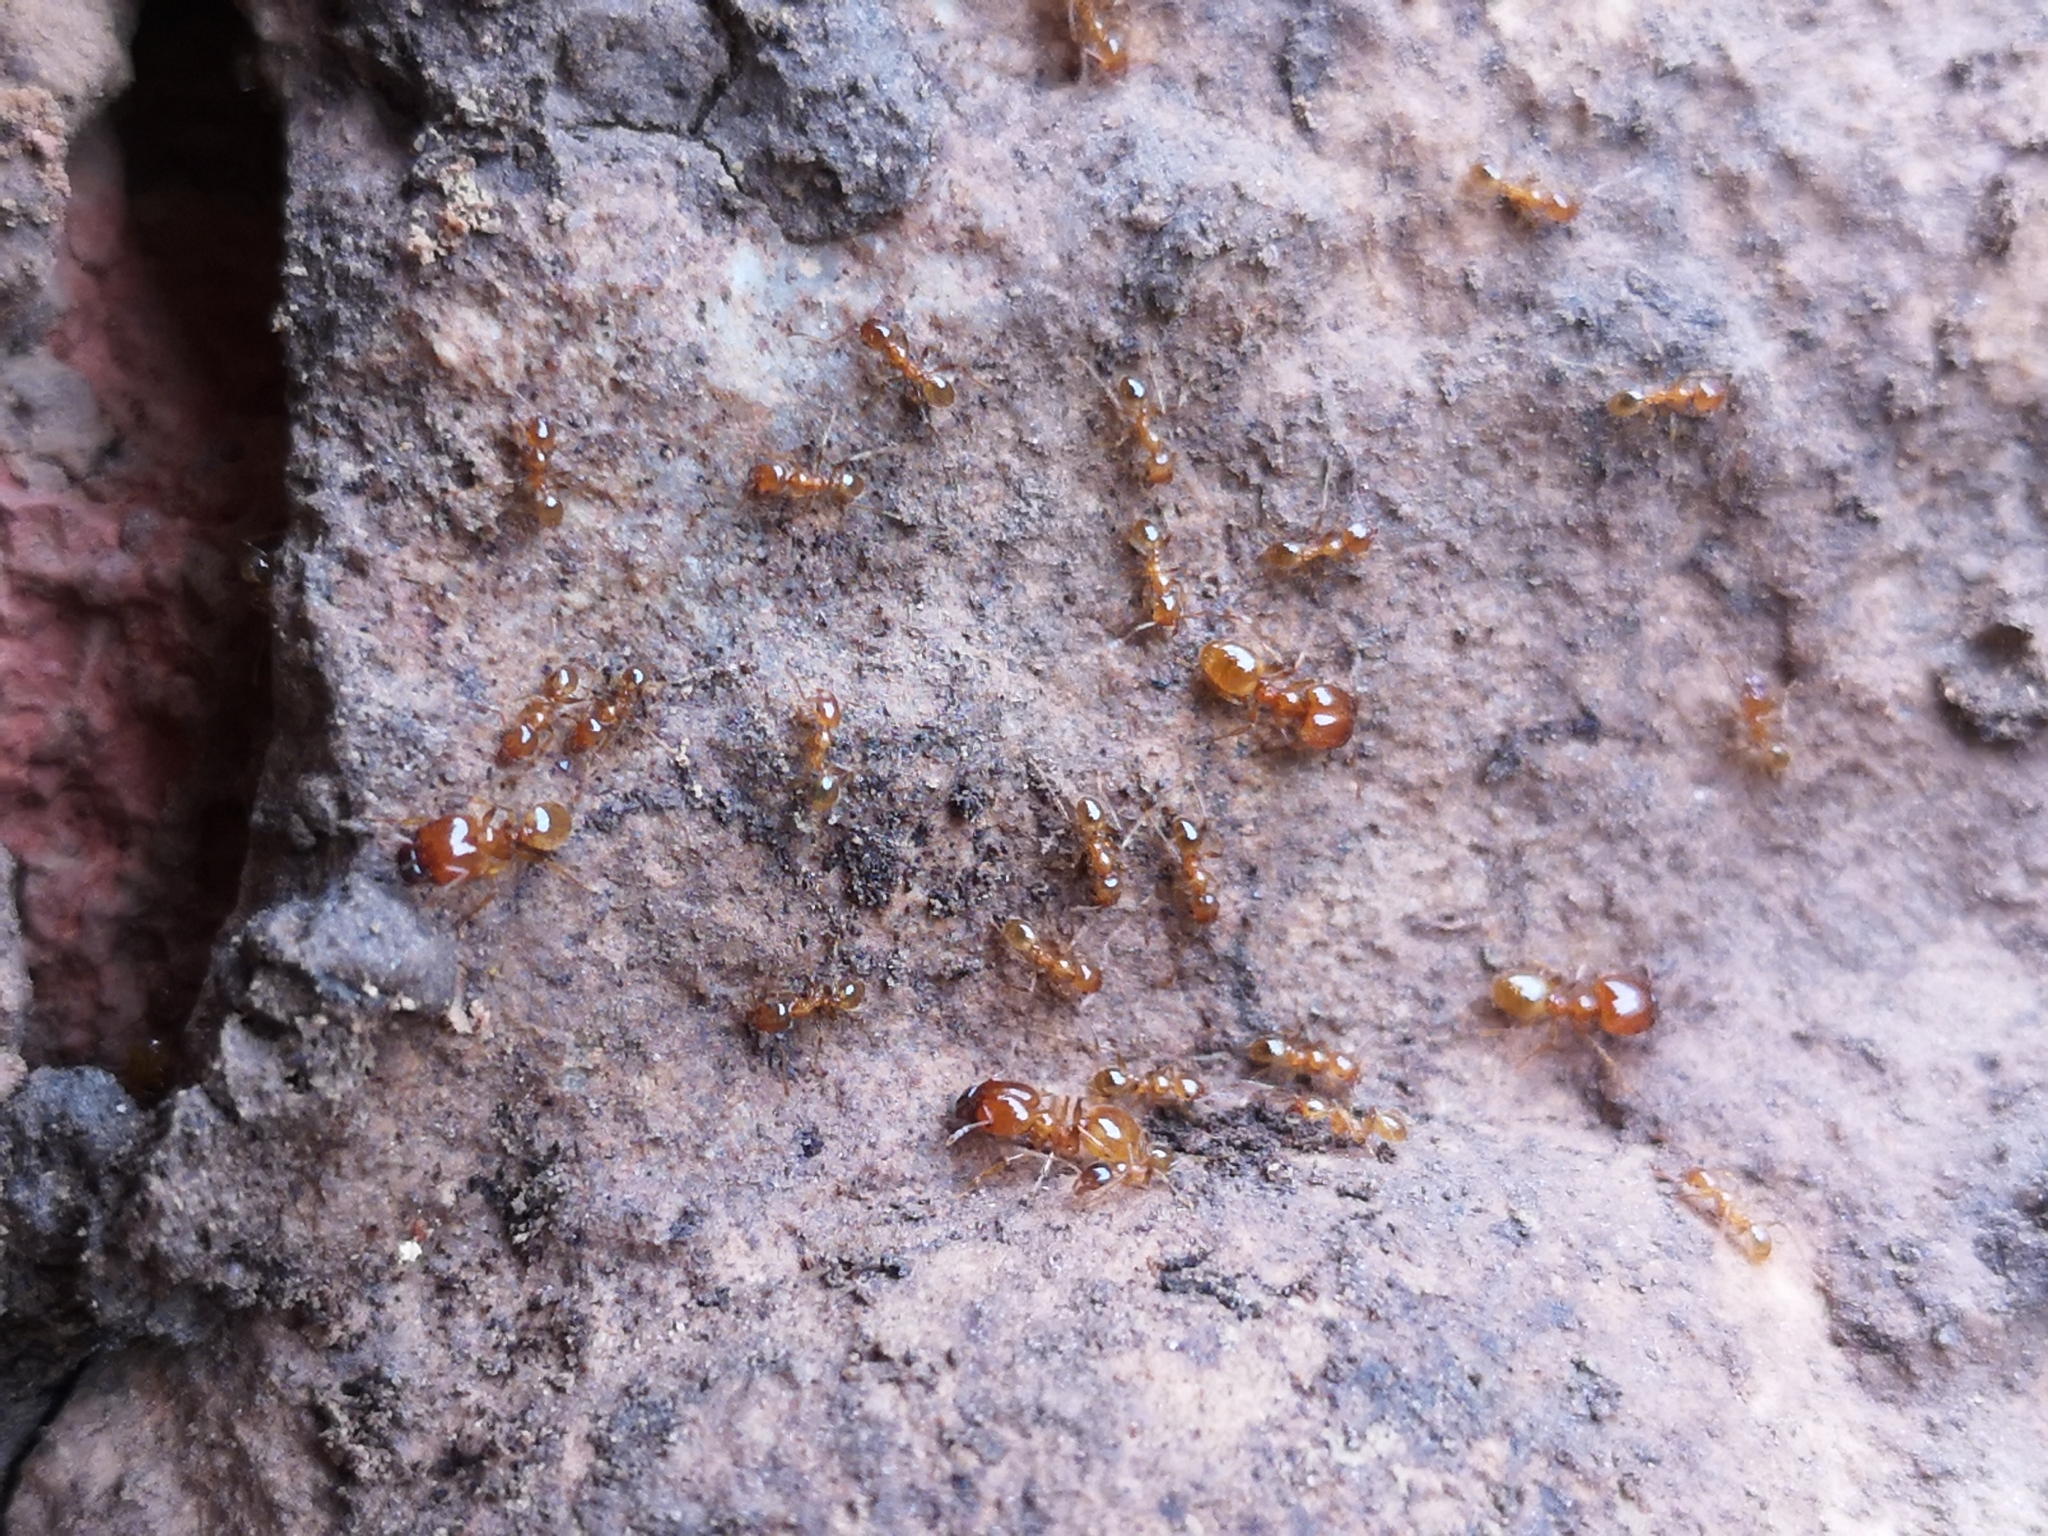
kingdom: Animalia
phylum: Arthropoda
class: Insecta
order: Hymenoptera
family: Formicidae
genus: Pheidole
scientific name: Pheidole pallidula
